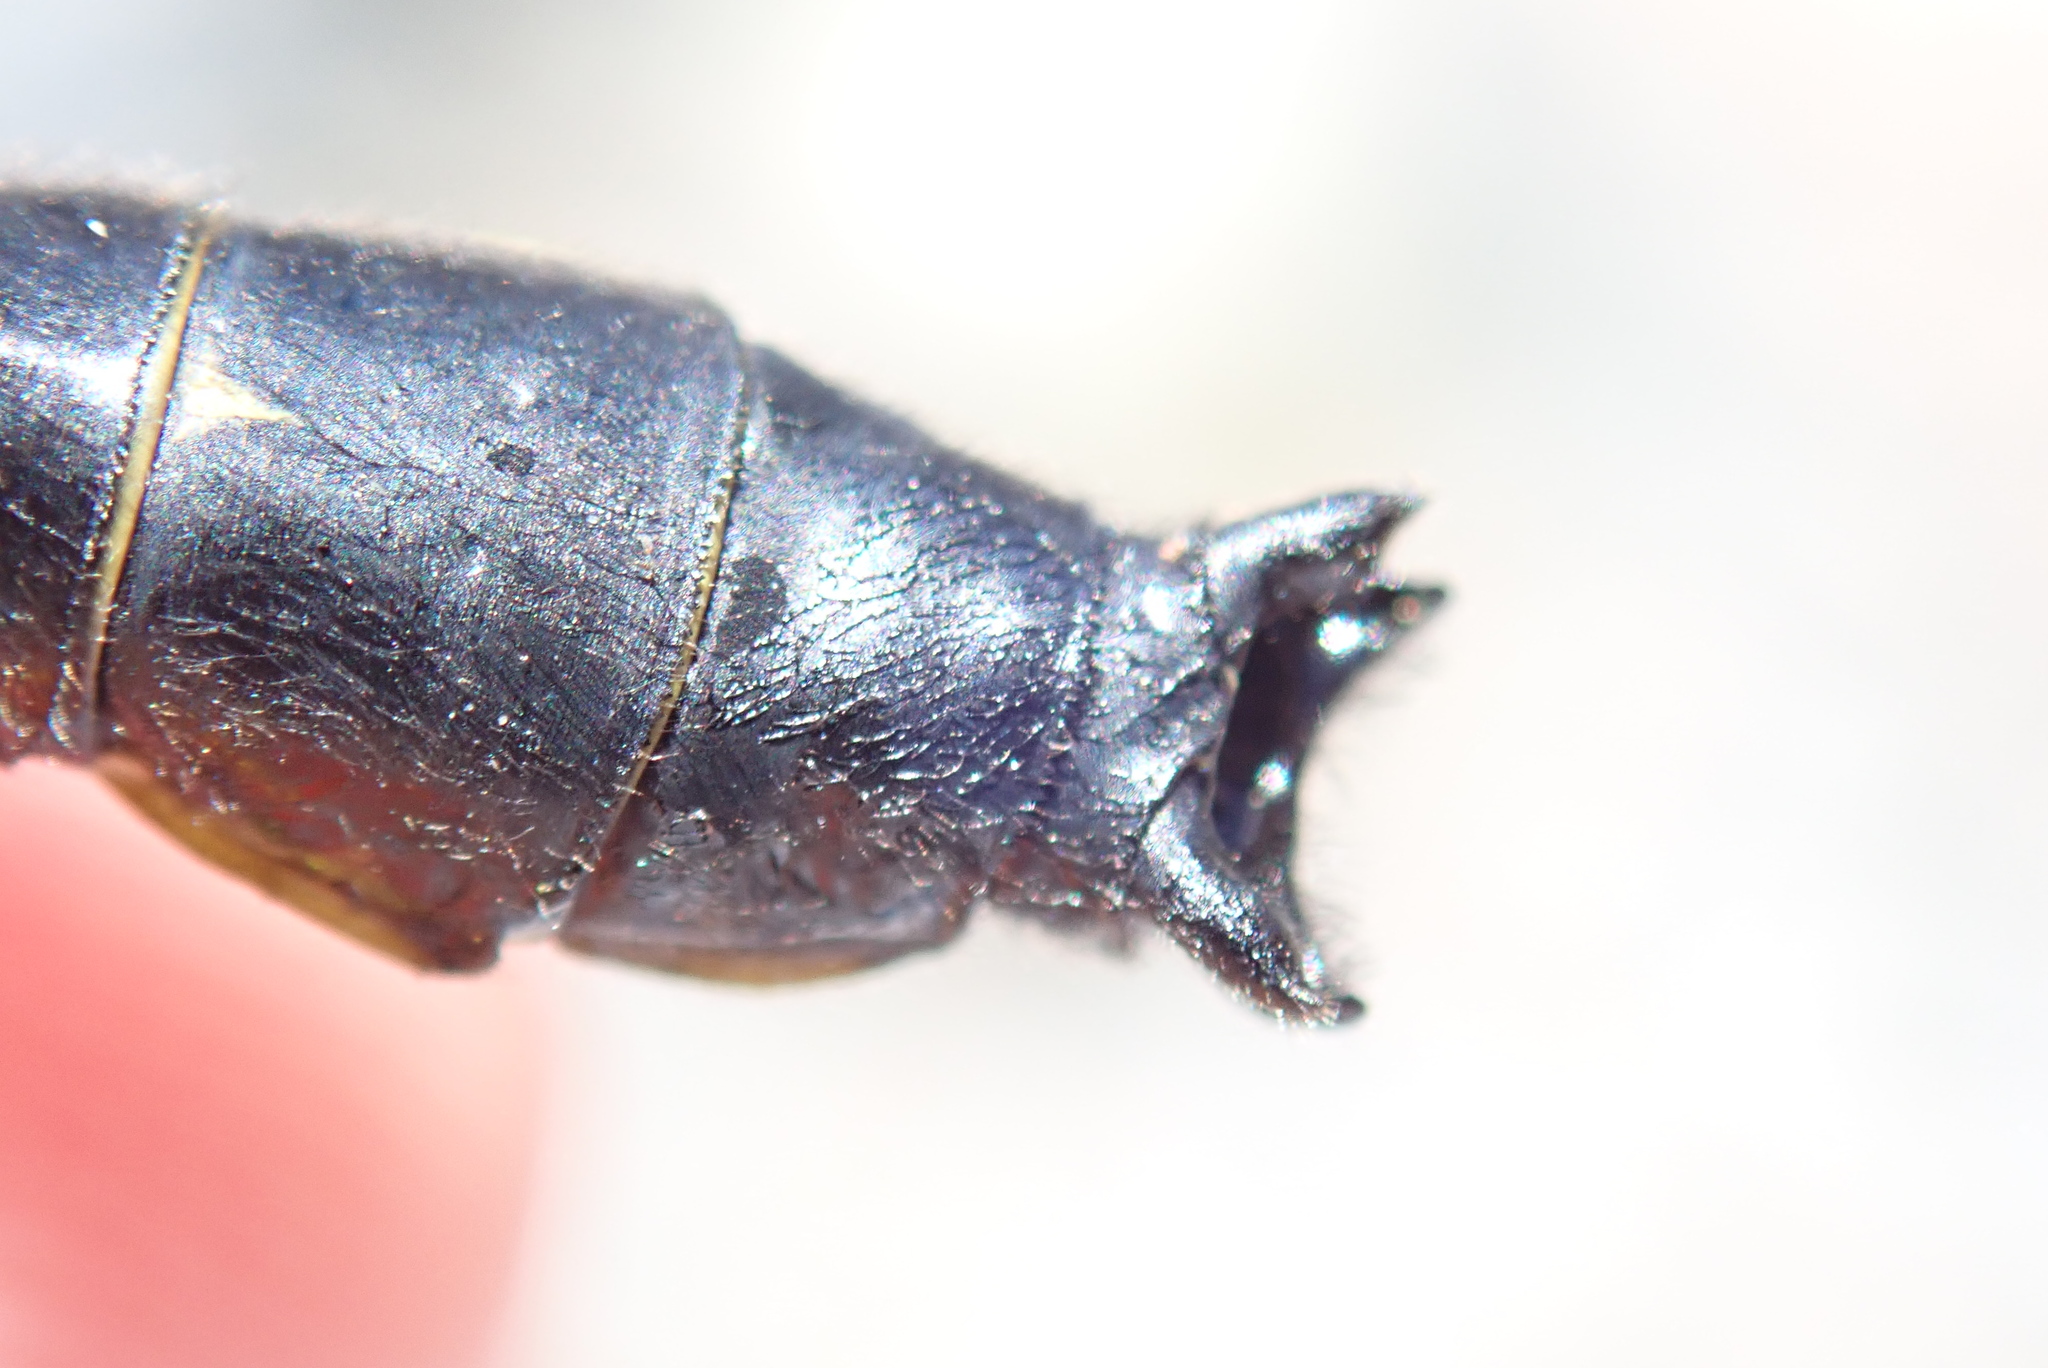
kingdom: Animalia
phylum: Arthropoda
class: Insecta
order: Odonata
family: Gomphidae
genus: Hylogomphus
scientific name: Hylogomphus adelphus
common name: Mustached clubtail
